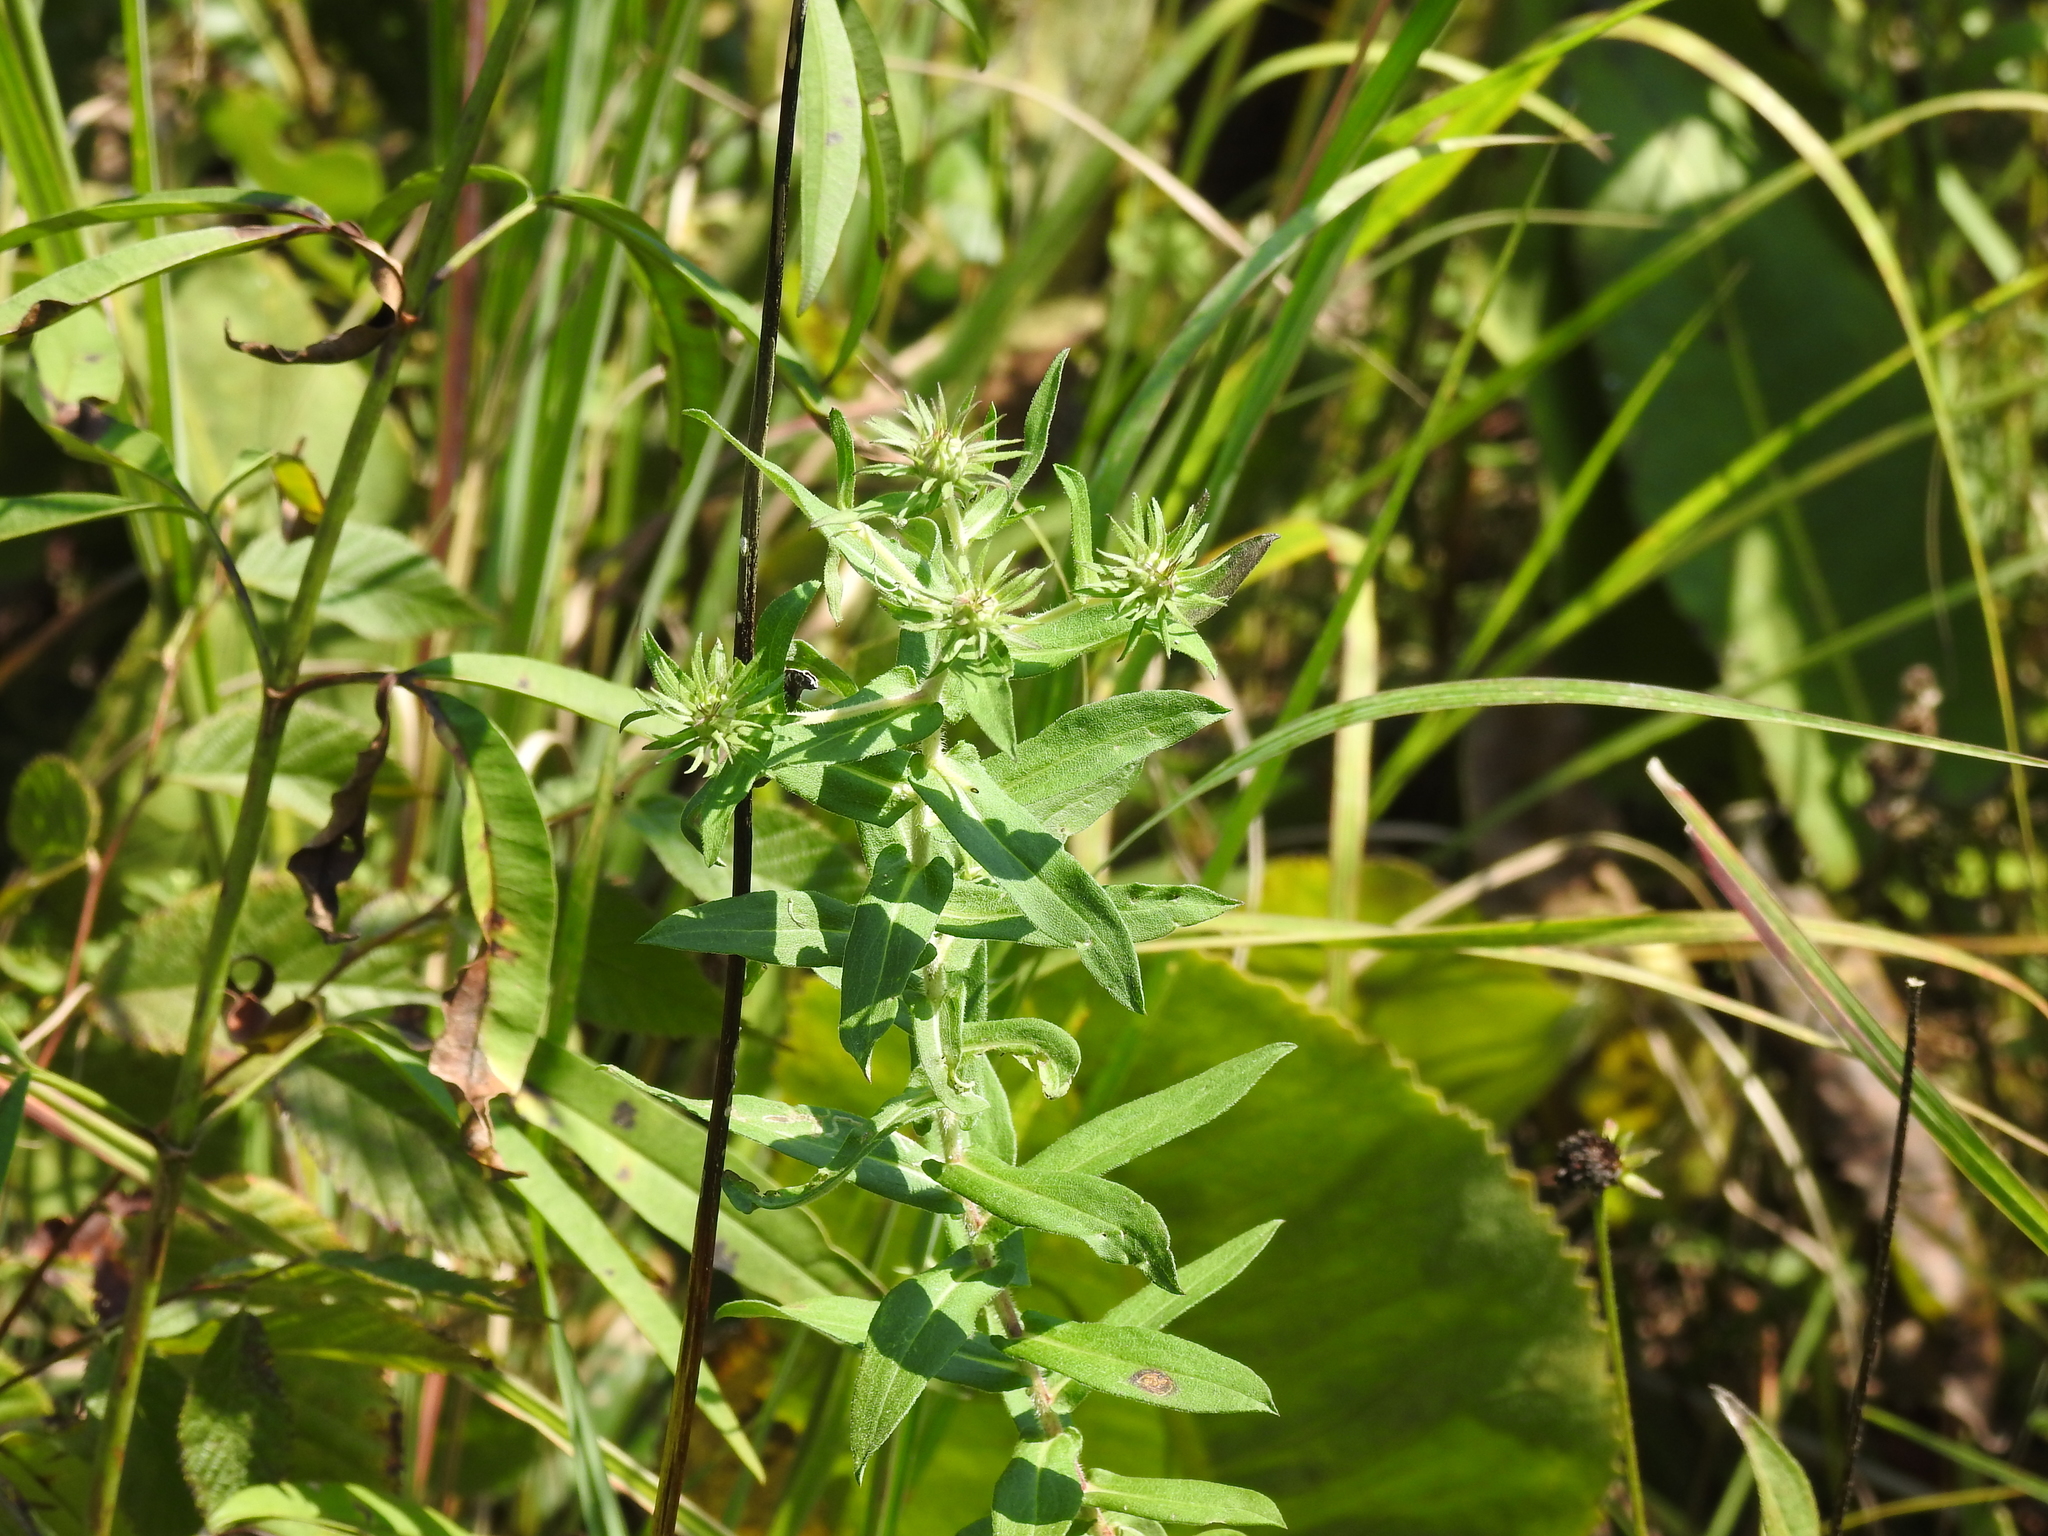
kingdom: Plantae
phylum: Tracheophyta
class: Magnoliopsida
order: Asterales
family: Asteraceae
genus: Symphyotrichum
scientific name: Symphyotrichum oblongifolium
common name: Aromatic aster
